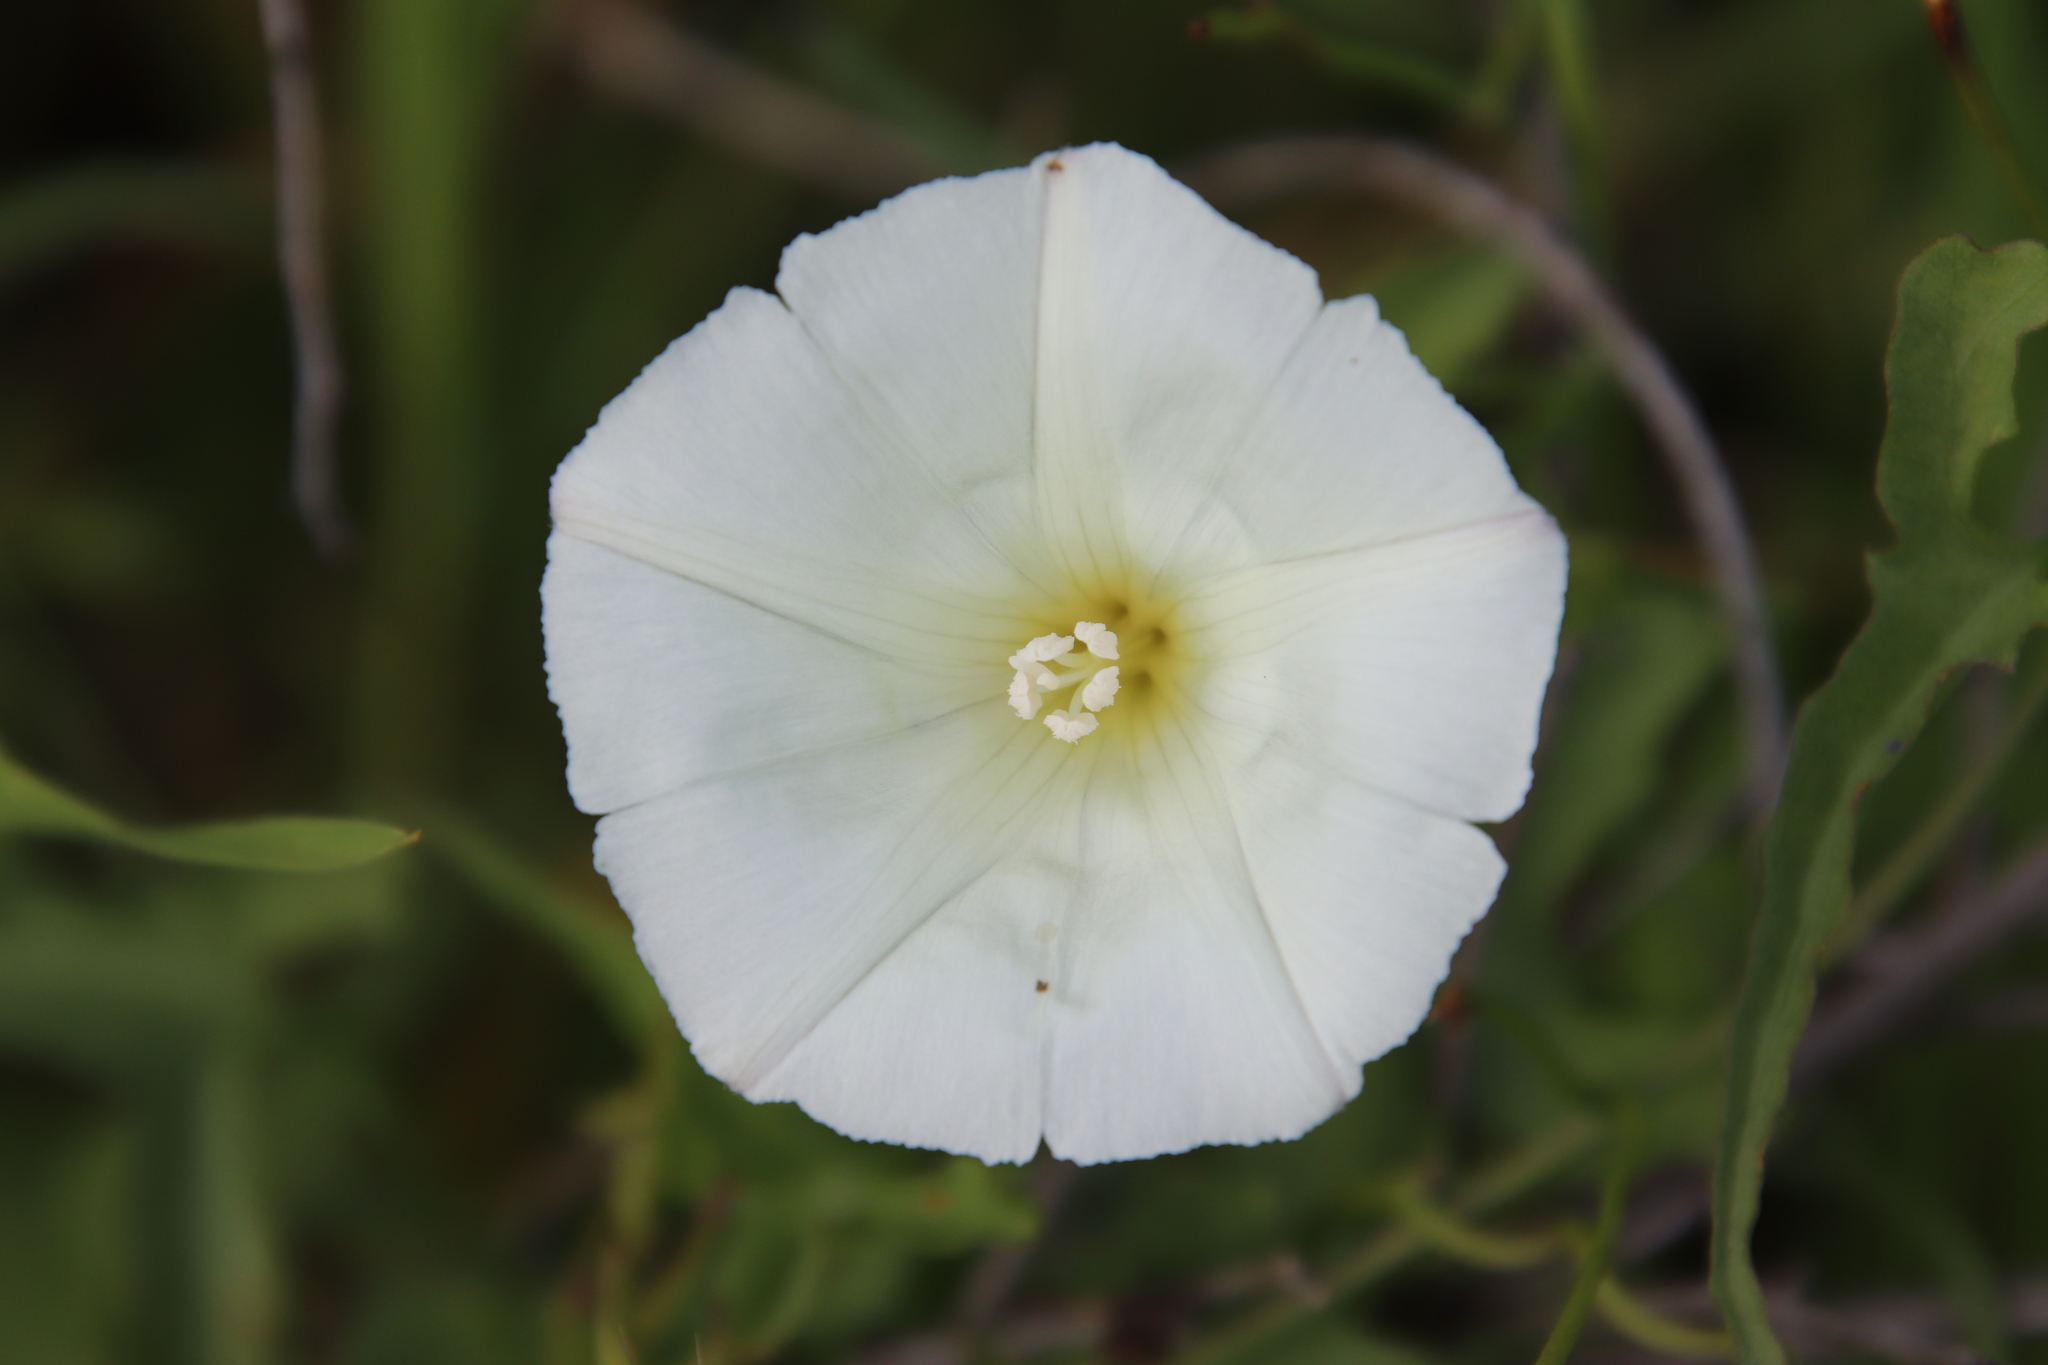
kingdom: Plantae
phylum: Tracheophyta
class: Magnoliopsida
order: Solanales
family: Convolvulaceae
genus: Calystegia
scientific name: Calystegia macrostegia
